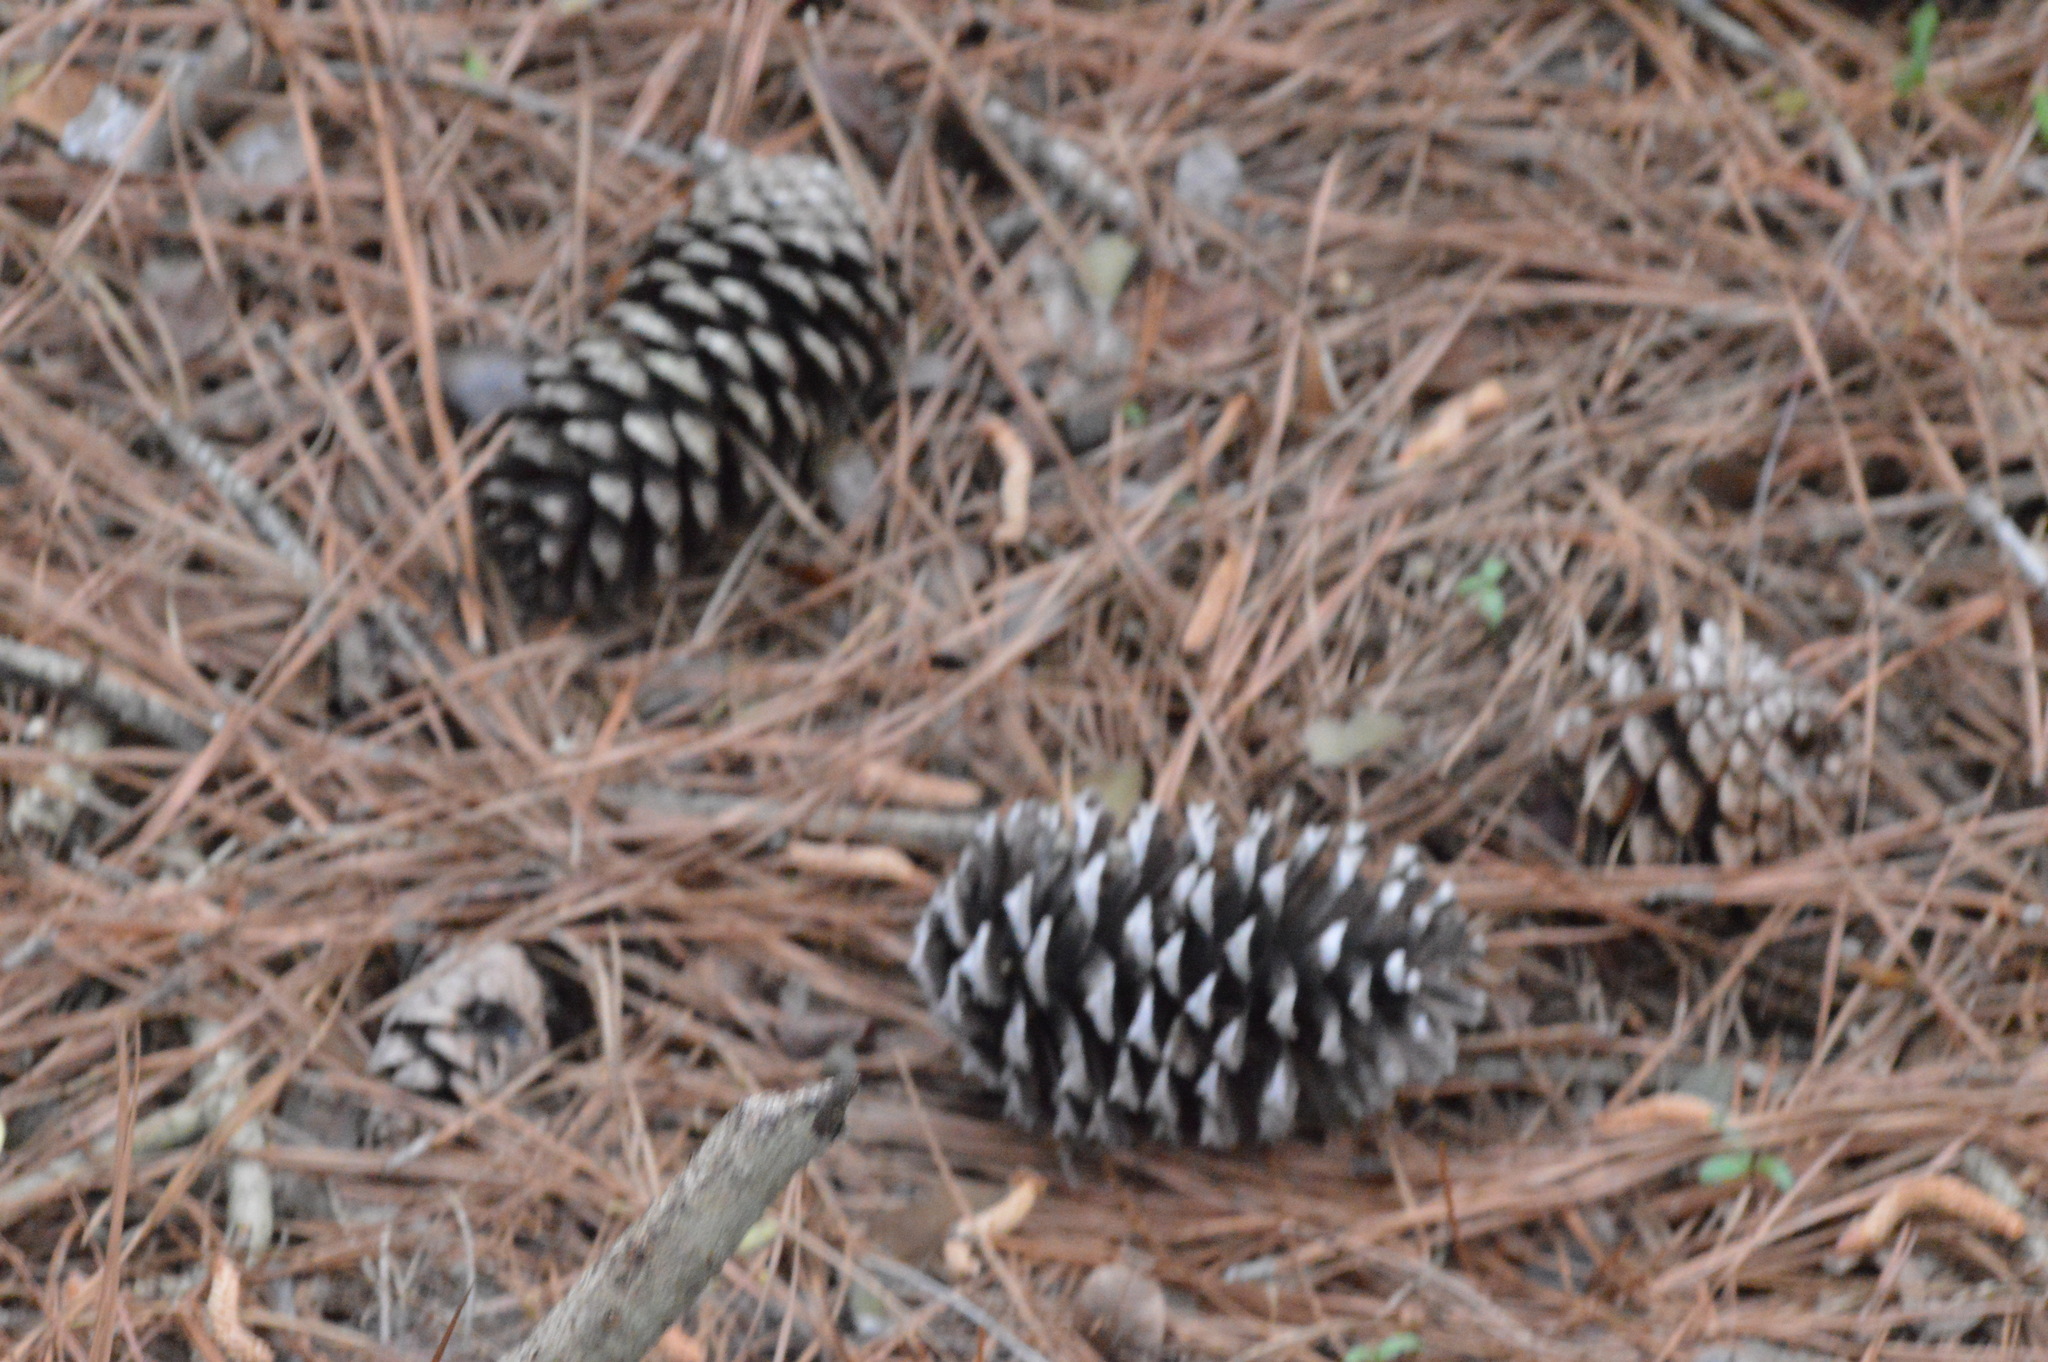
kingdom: Plantae
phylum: Tracheophyta
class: Pinopsida
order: Pinales
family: Pinaceae
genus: Pinus
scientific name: Pinus taeda
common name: Loblolly pine
